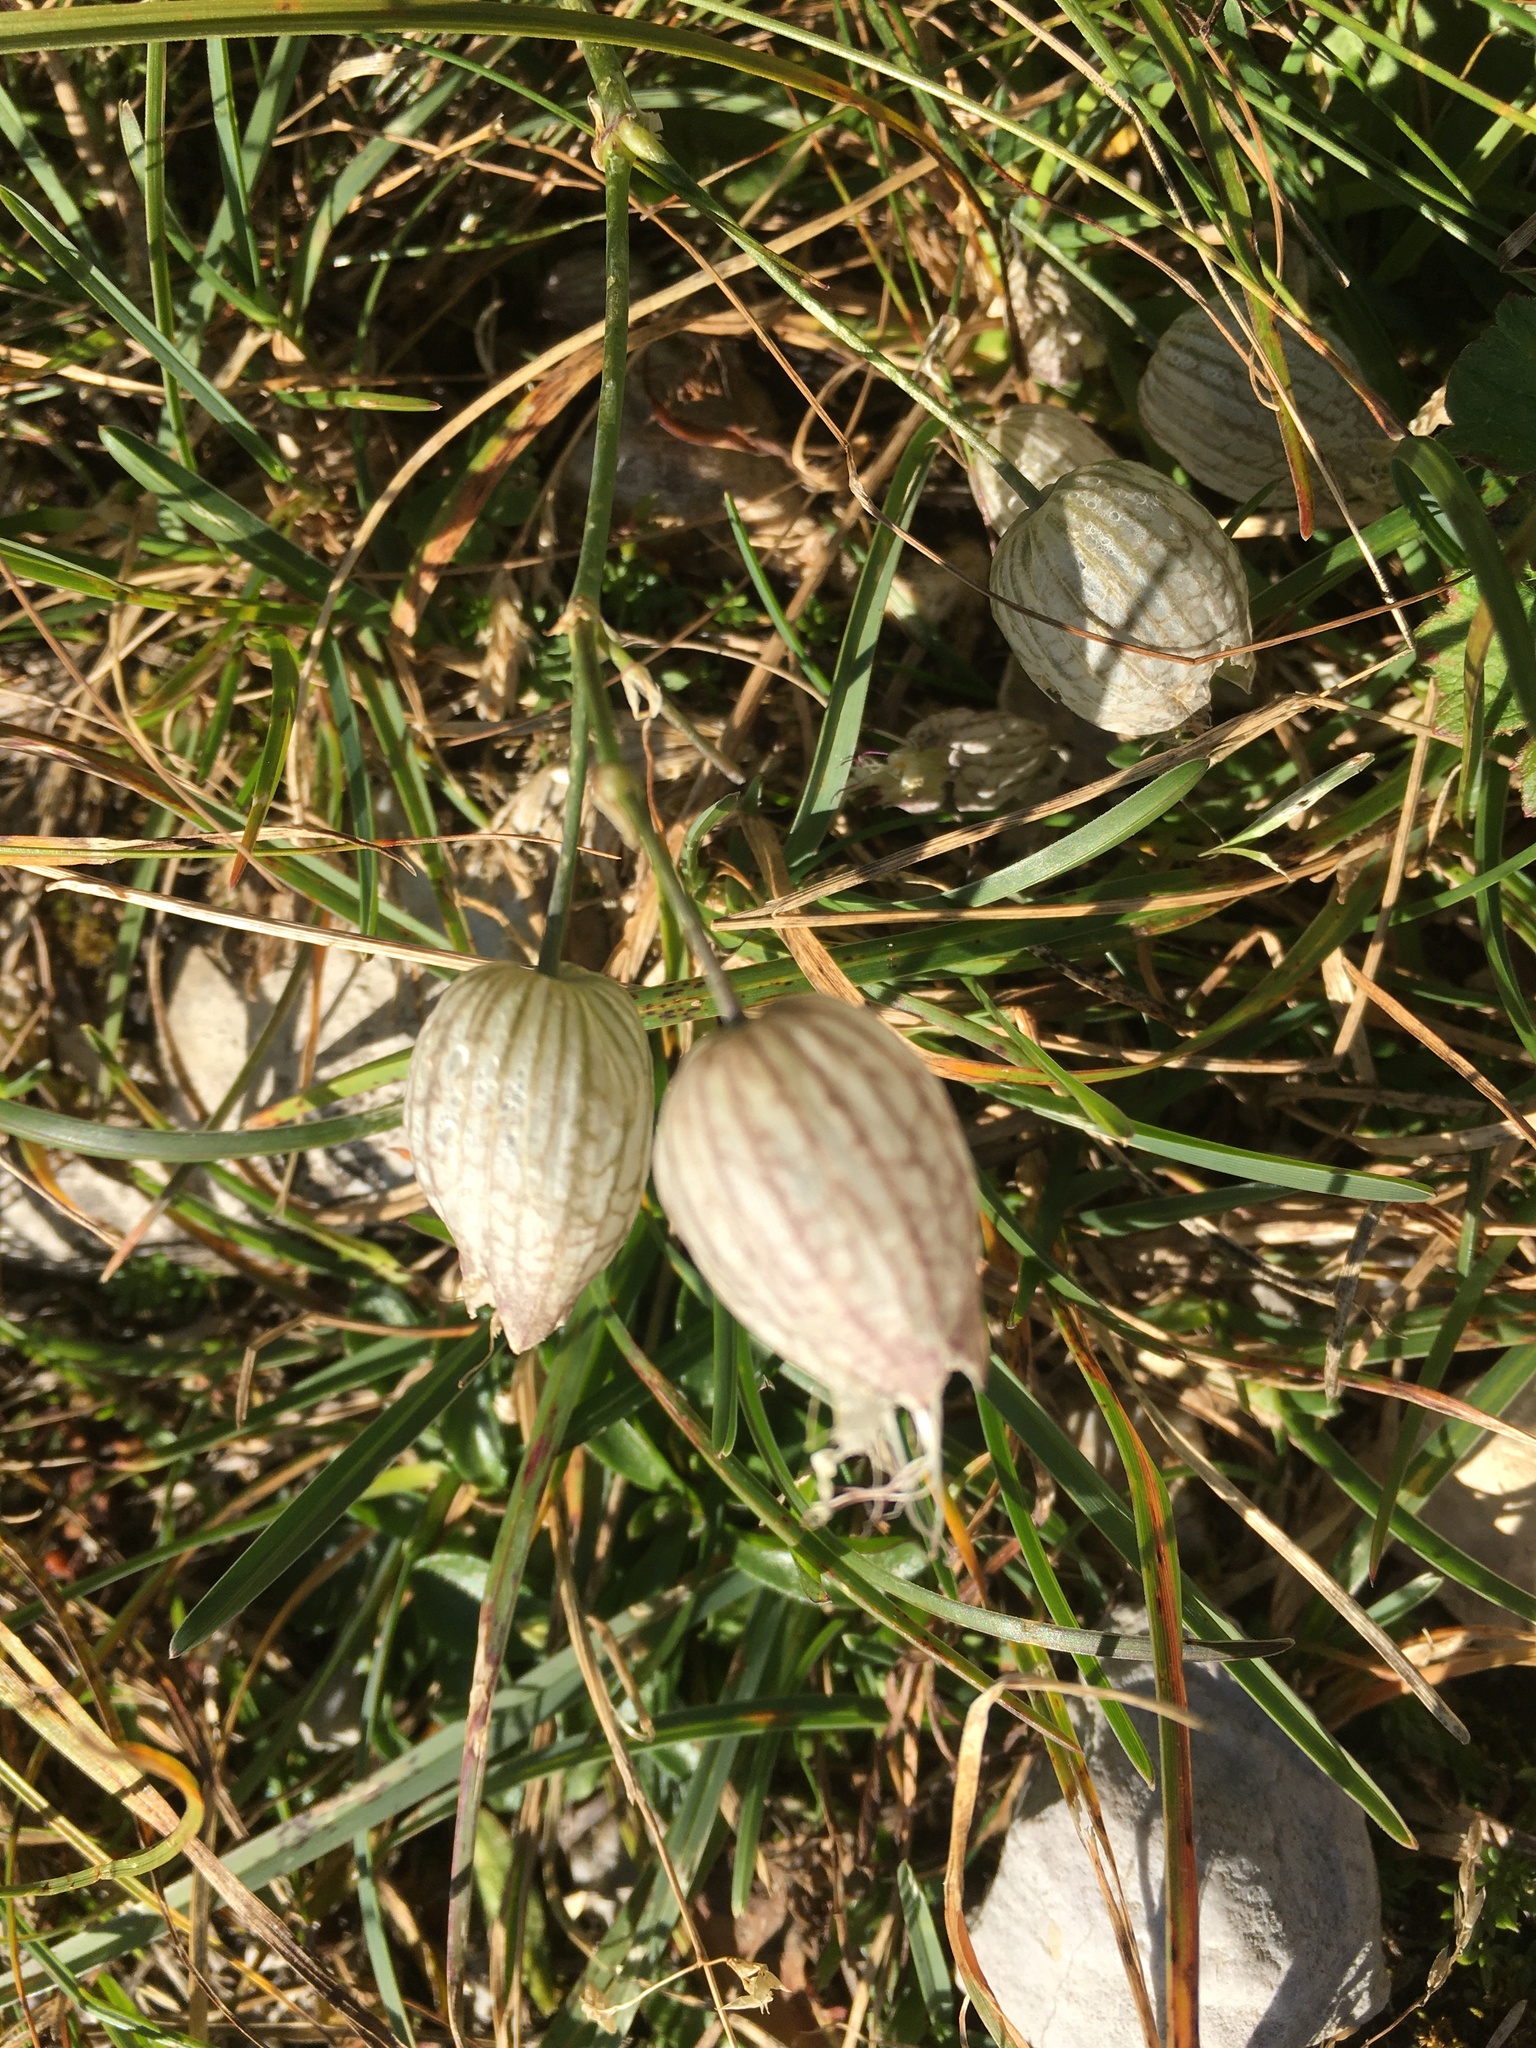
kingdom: Plantae
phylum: Tracheophyta
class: Magnoliopsida
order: Caryophyllales
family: Caryophyllaceae
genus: Silene
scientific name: Silene vulgaris
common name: Bladder campion
